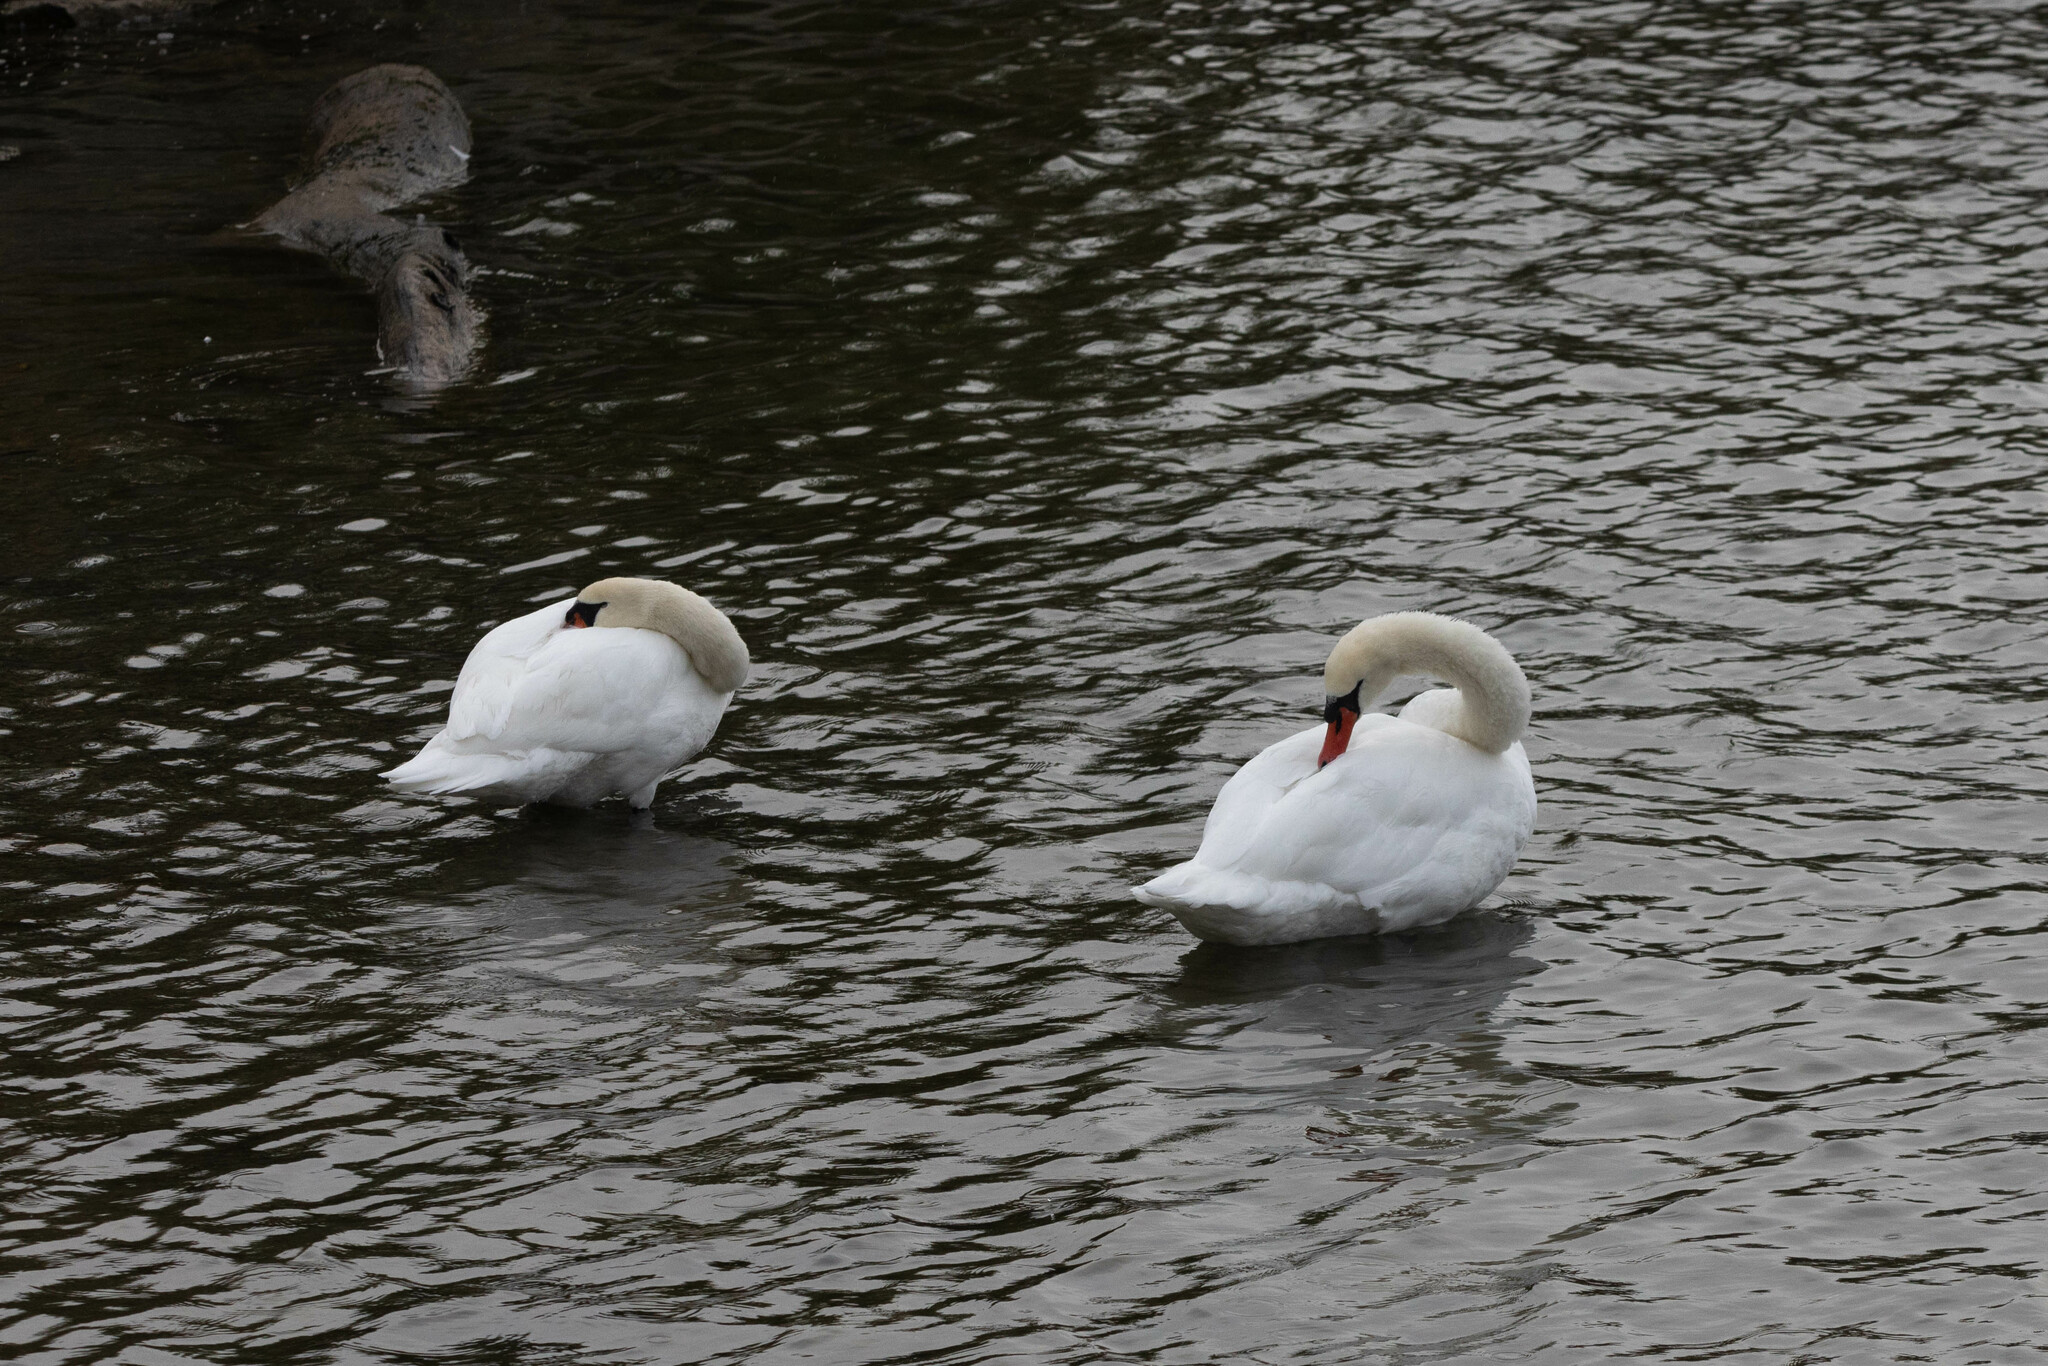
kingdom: Animalia
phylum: Chordata
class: Aves
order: Anseriformes
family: Anatidae
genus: Cygnus
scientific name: Cygnus olor
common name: Mute swan
